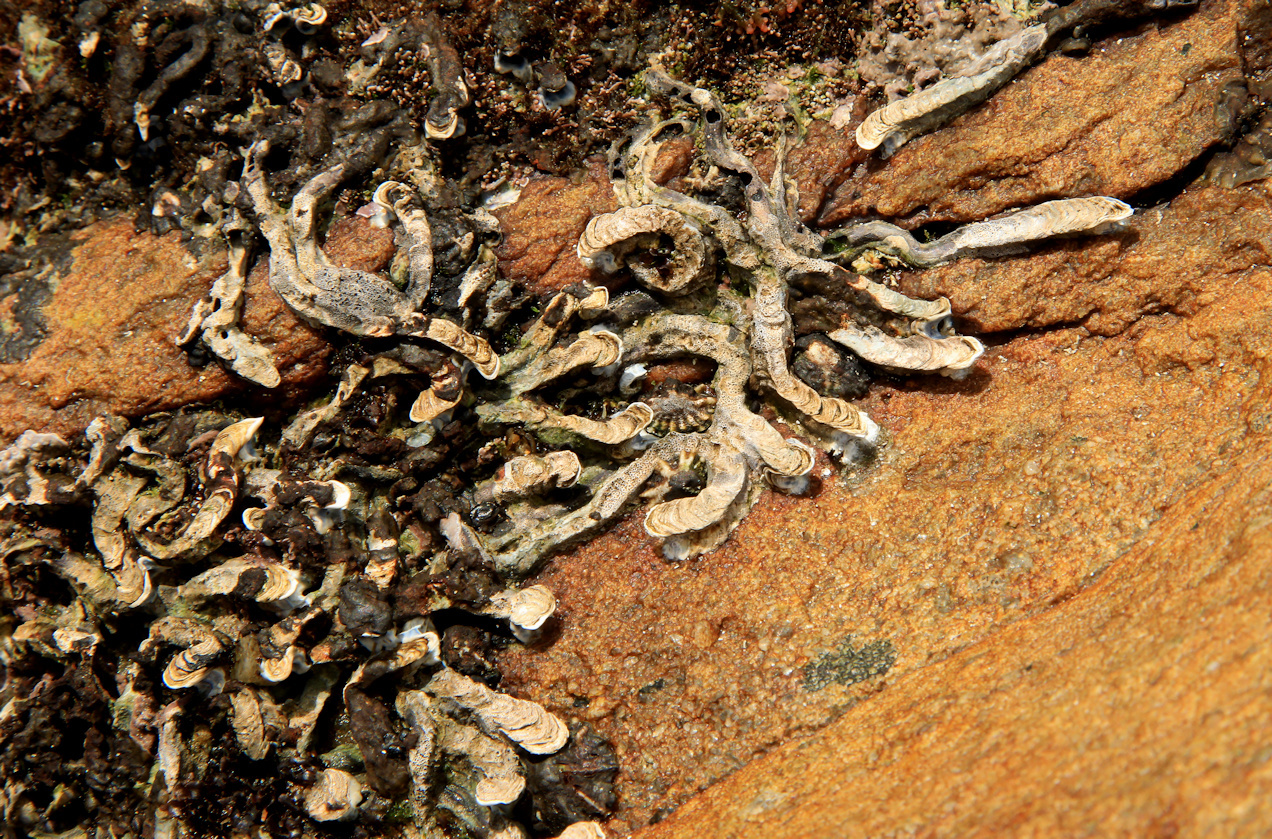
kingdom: Animalia
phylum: Annelida
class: Polychaeta
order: Sabellida
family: Serpulidae
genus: Spirobranchus
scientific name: Spirobranchus kraussii
